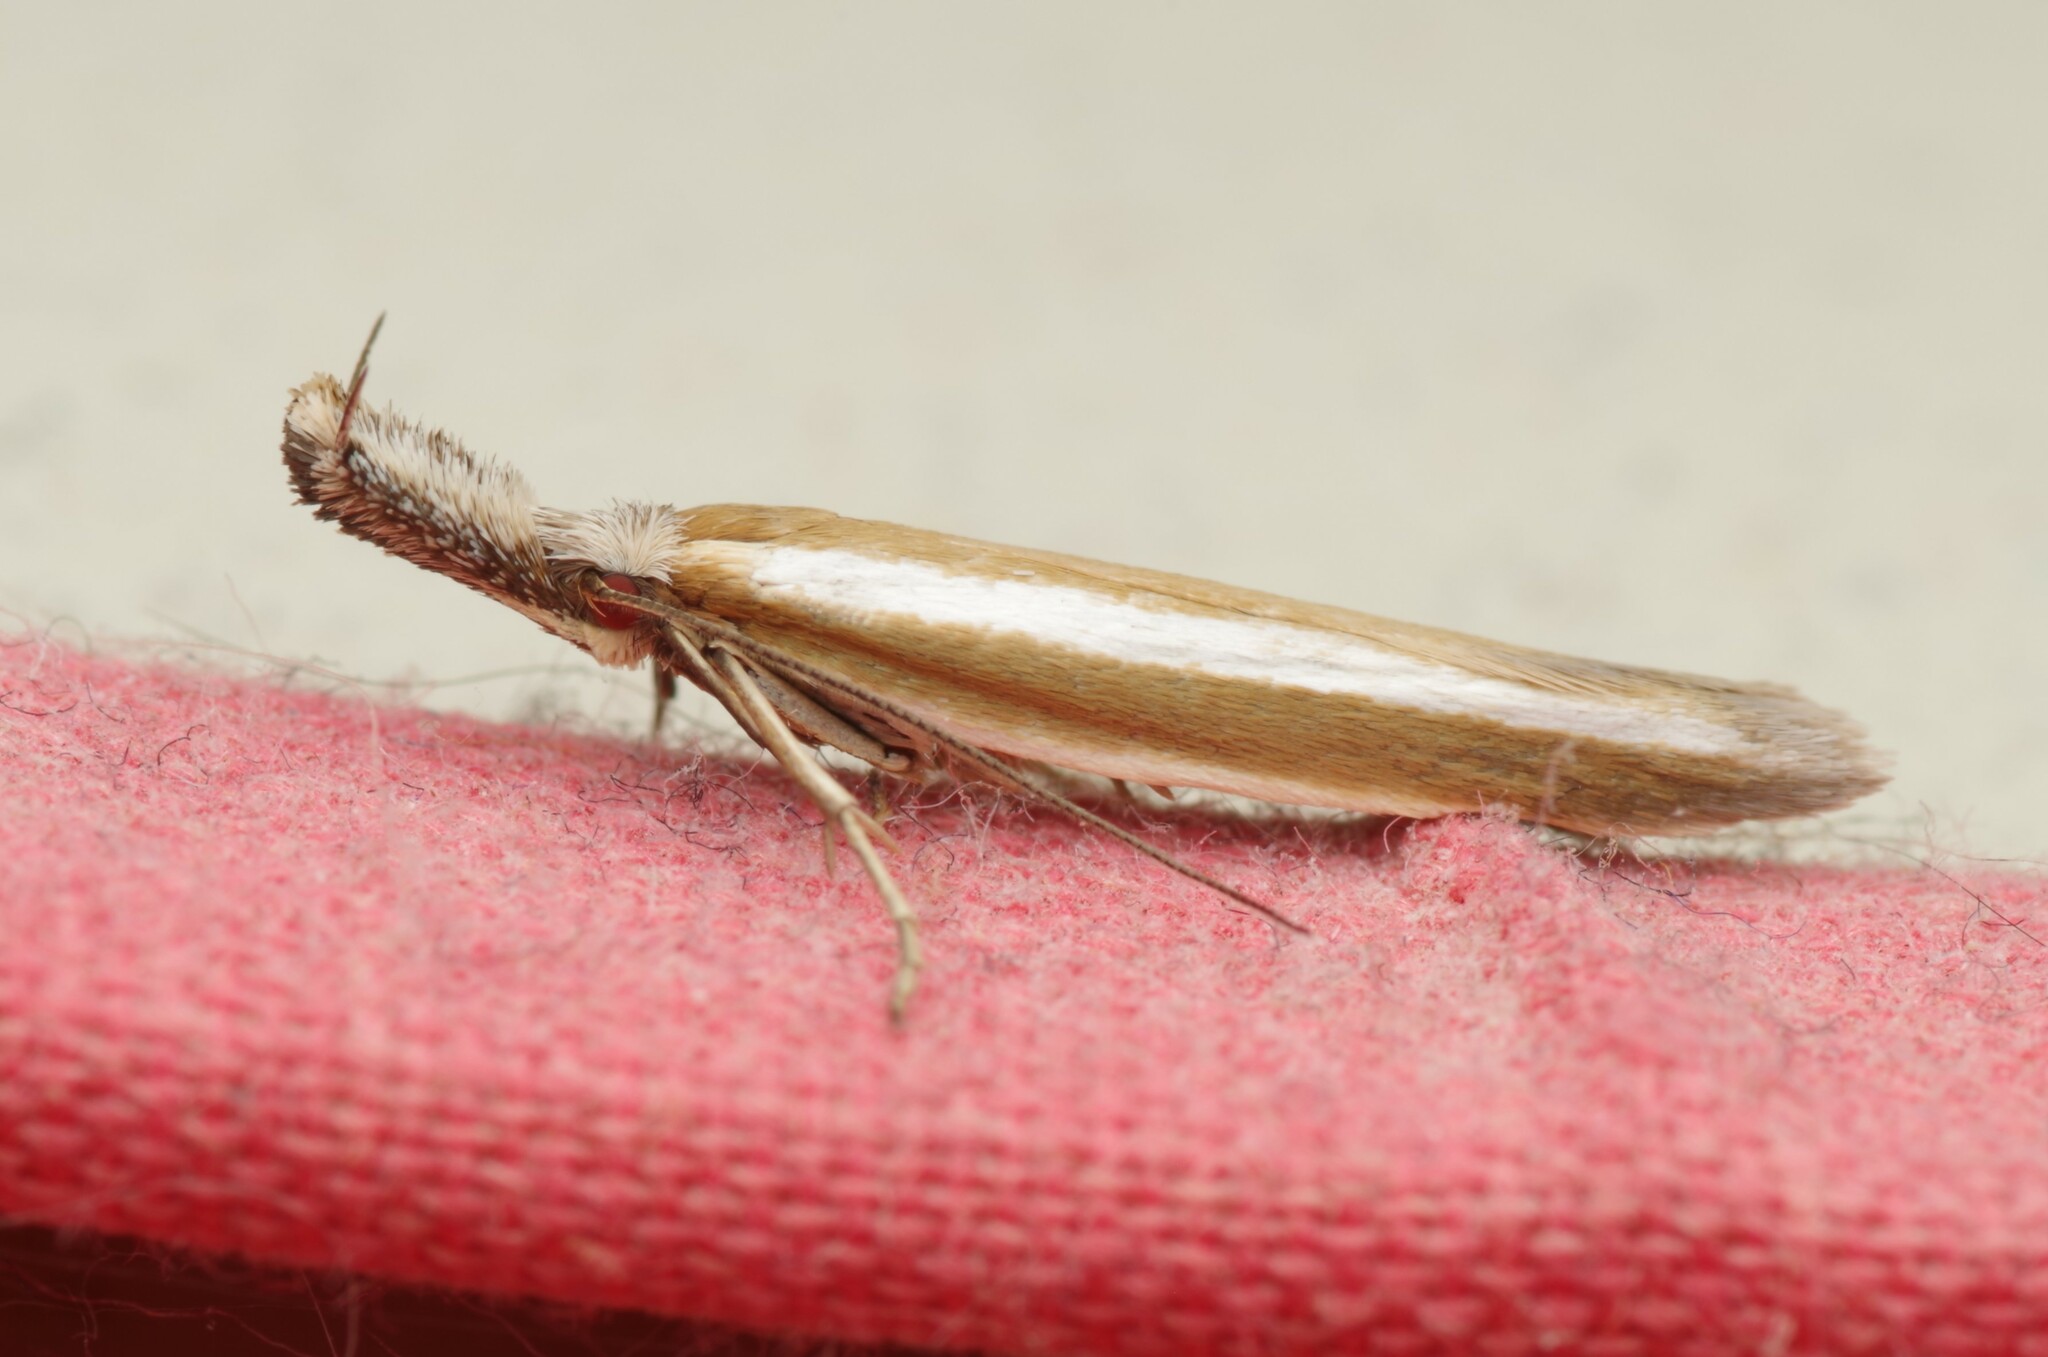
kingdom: Animalia
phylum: Arthropoda
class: Insecta
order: Lepidoptera
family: Oecophoridae
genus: Pleurota
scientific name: Pleurota aristella
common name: Southern streak
